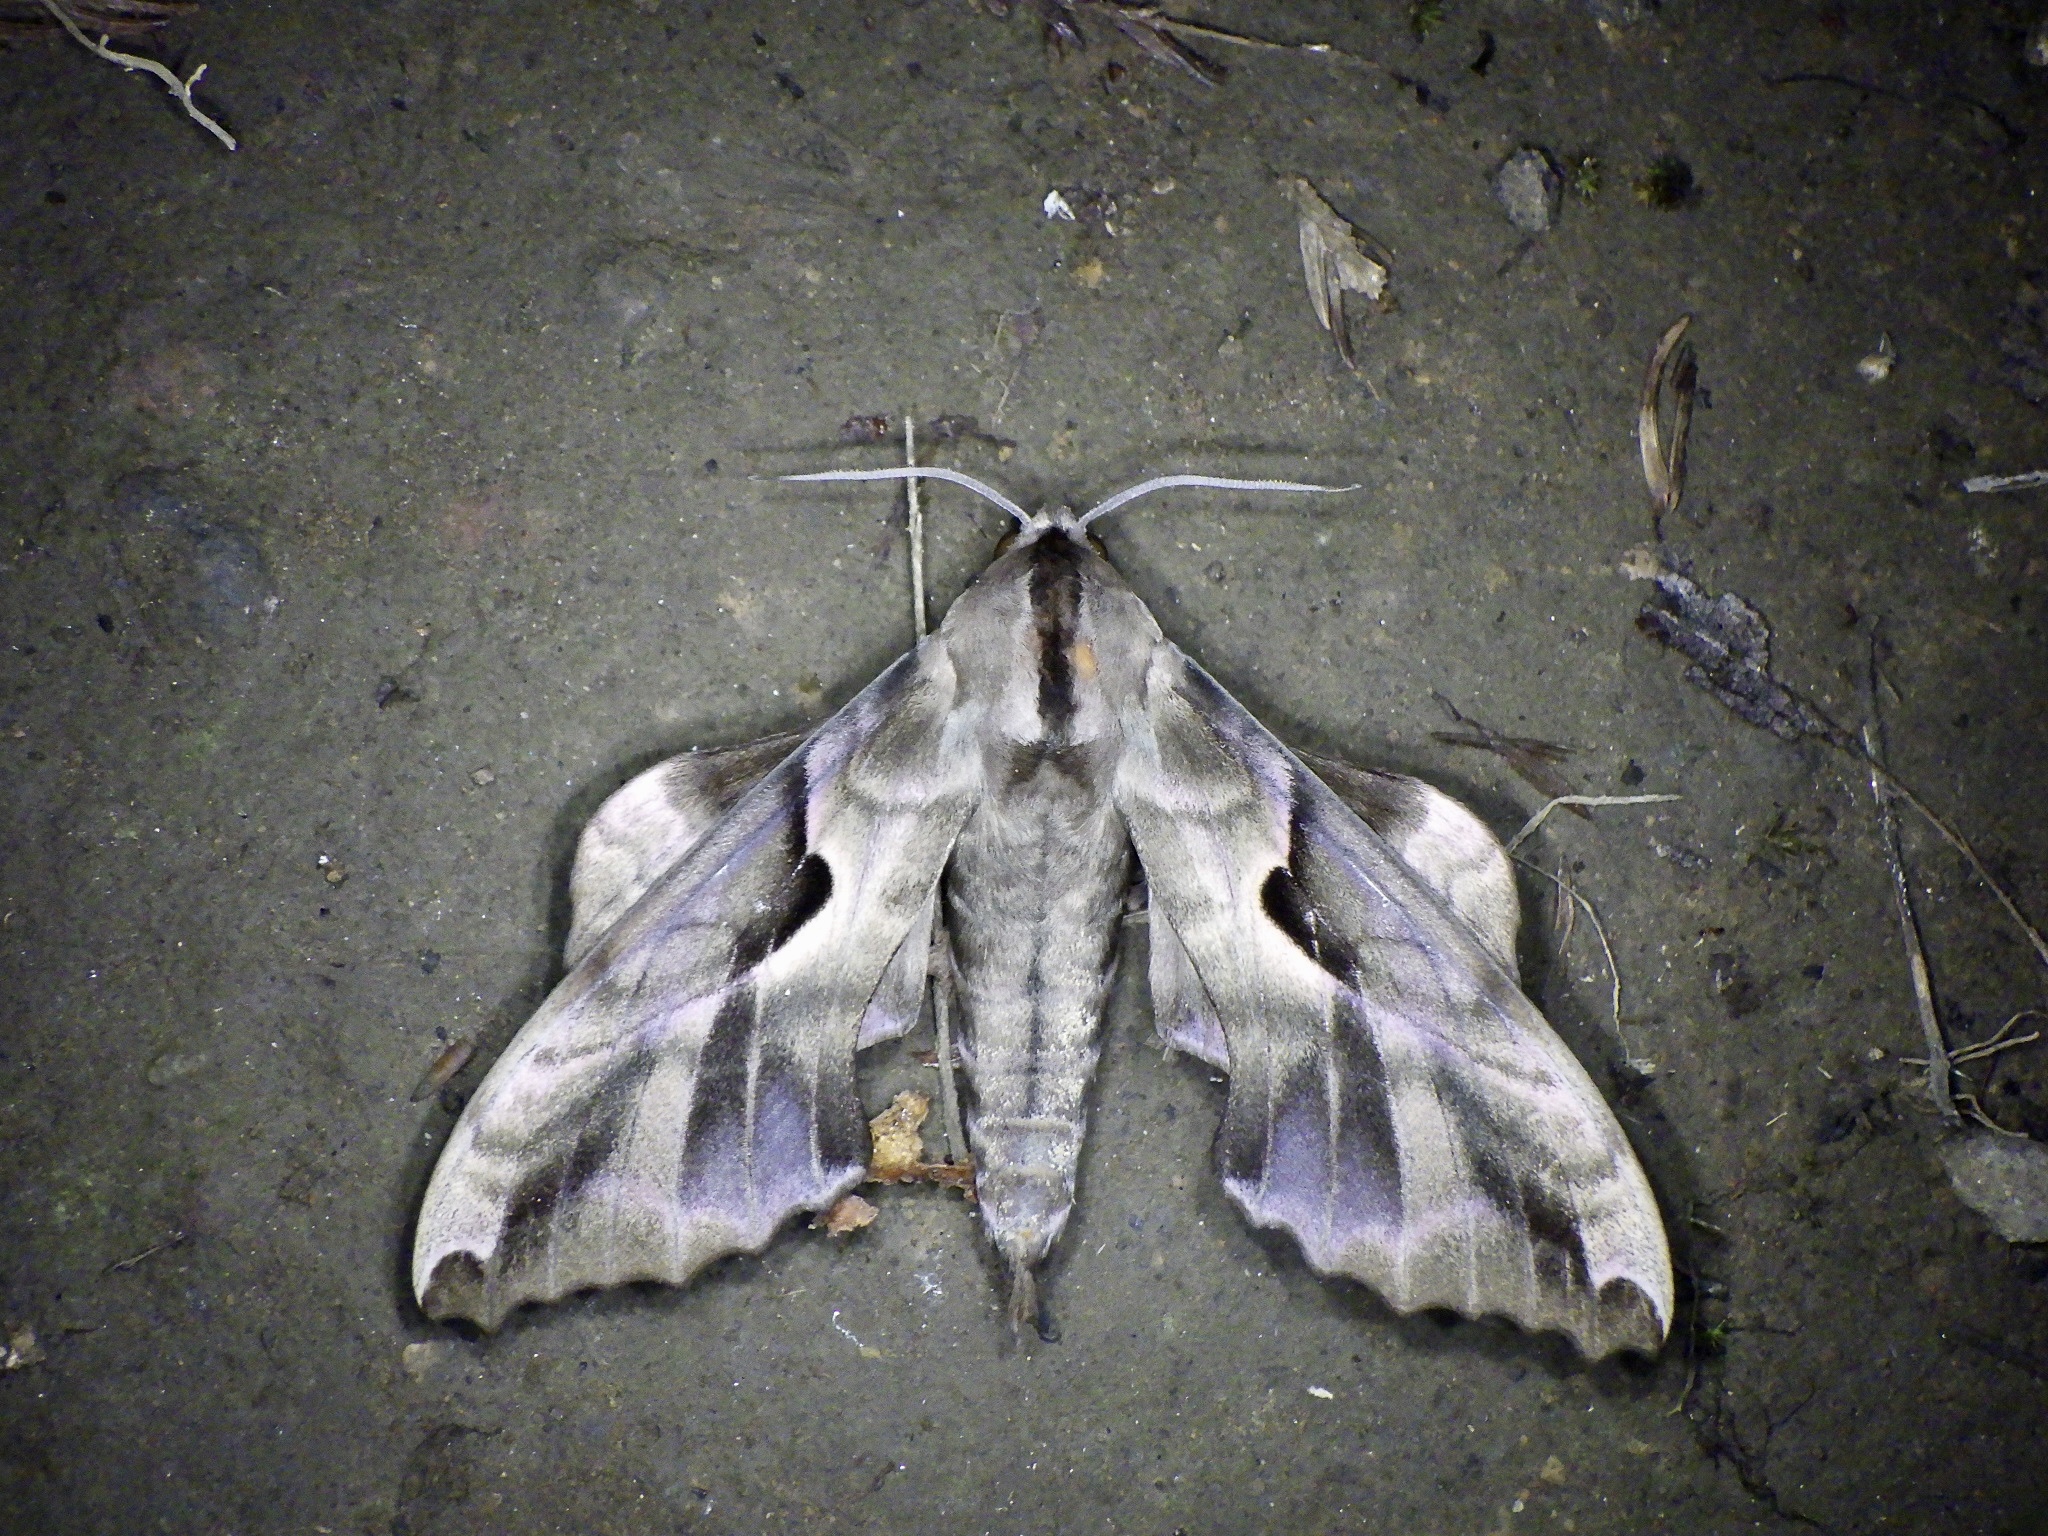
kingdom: Animalia
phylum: Arthropoda
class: Insecta
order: Lepidoptera
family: Sphingidae
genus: Phyllosphingia
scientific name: Phyllosphingia dissimilis
